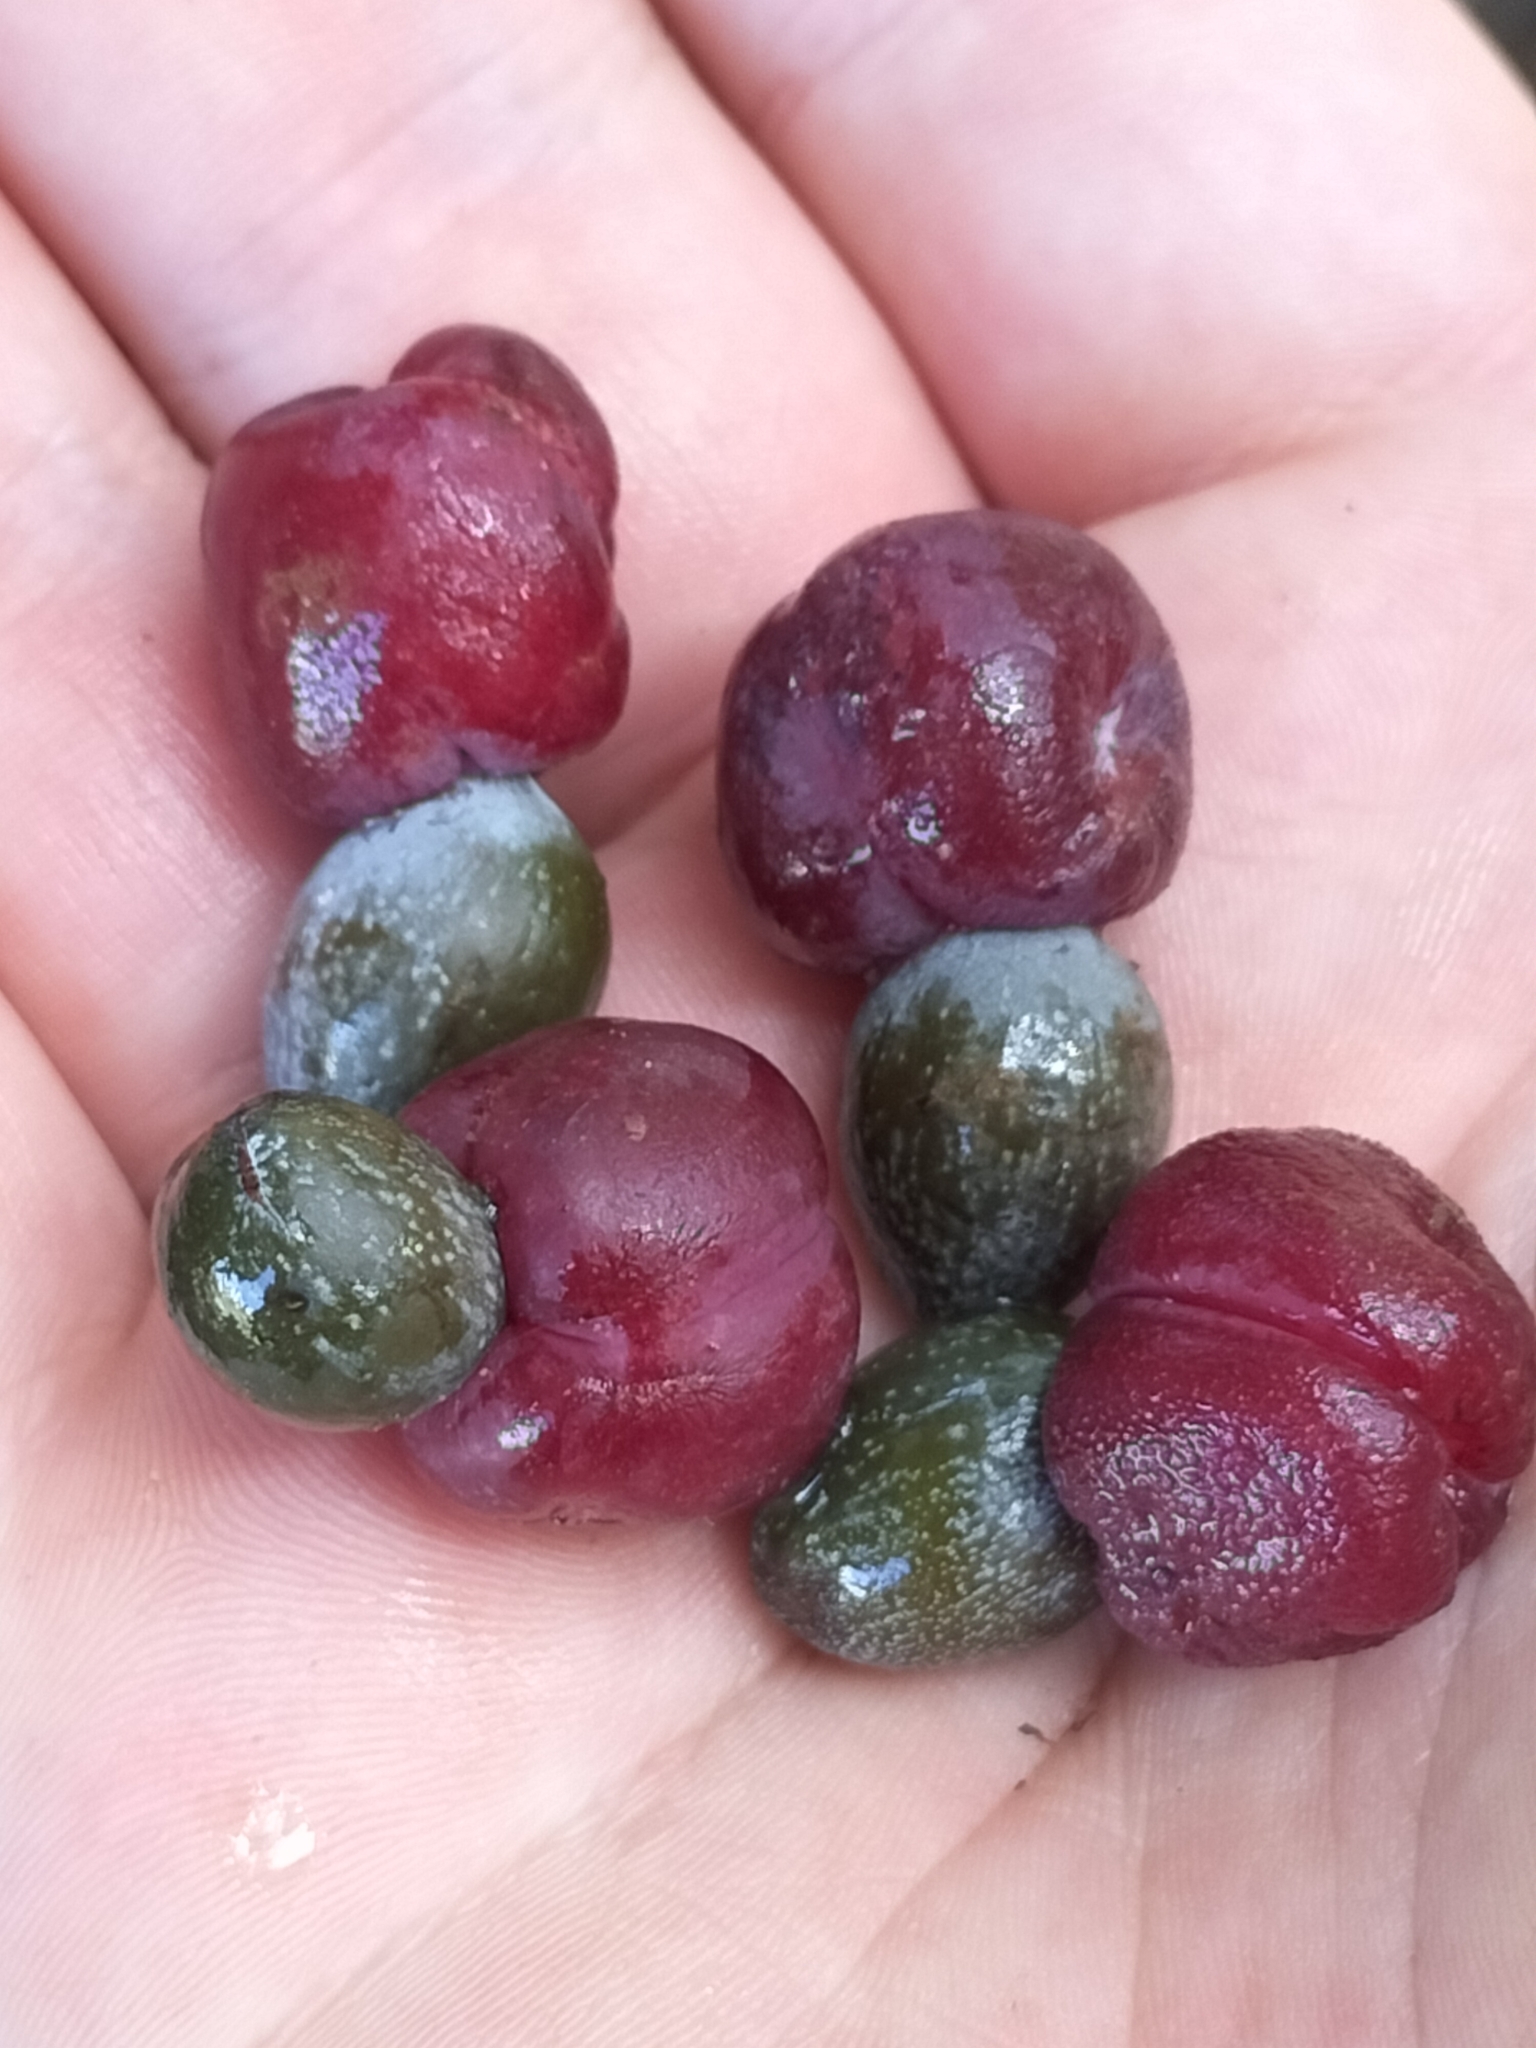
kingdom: Plantae
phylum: Tracheophyta
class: Pinopsida
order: Pinales
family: Podocarpaceae
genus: Podocarpus
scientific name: Podocarpus grayae
